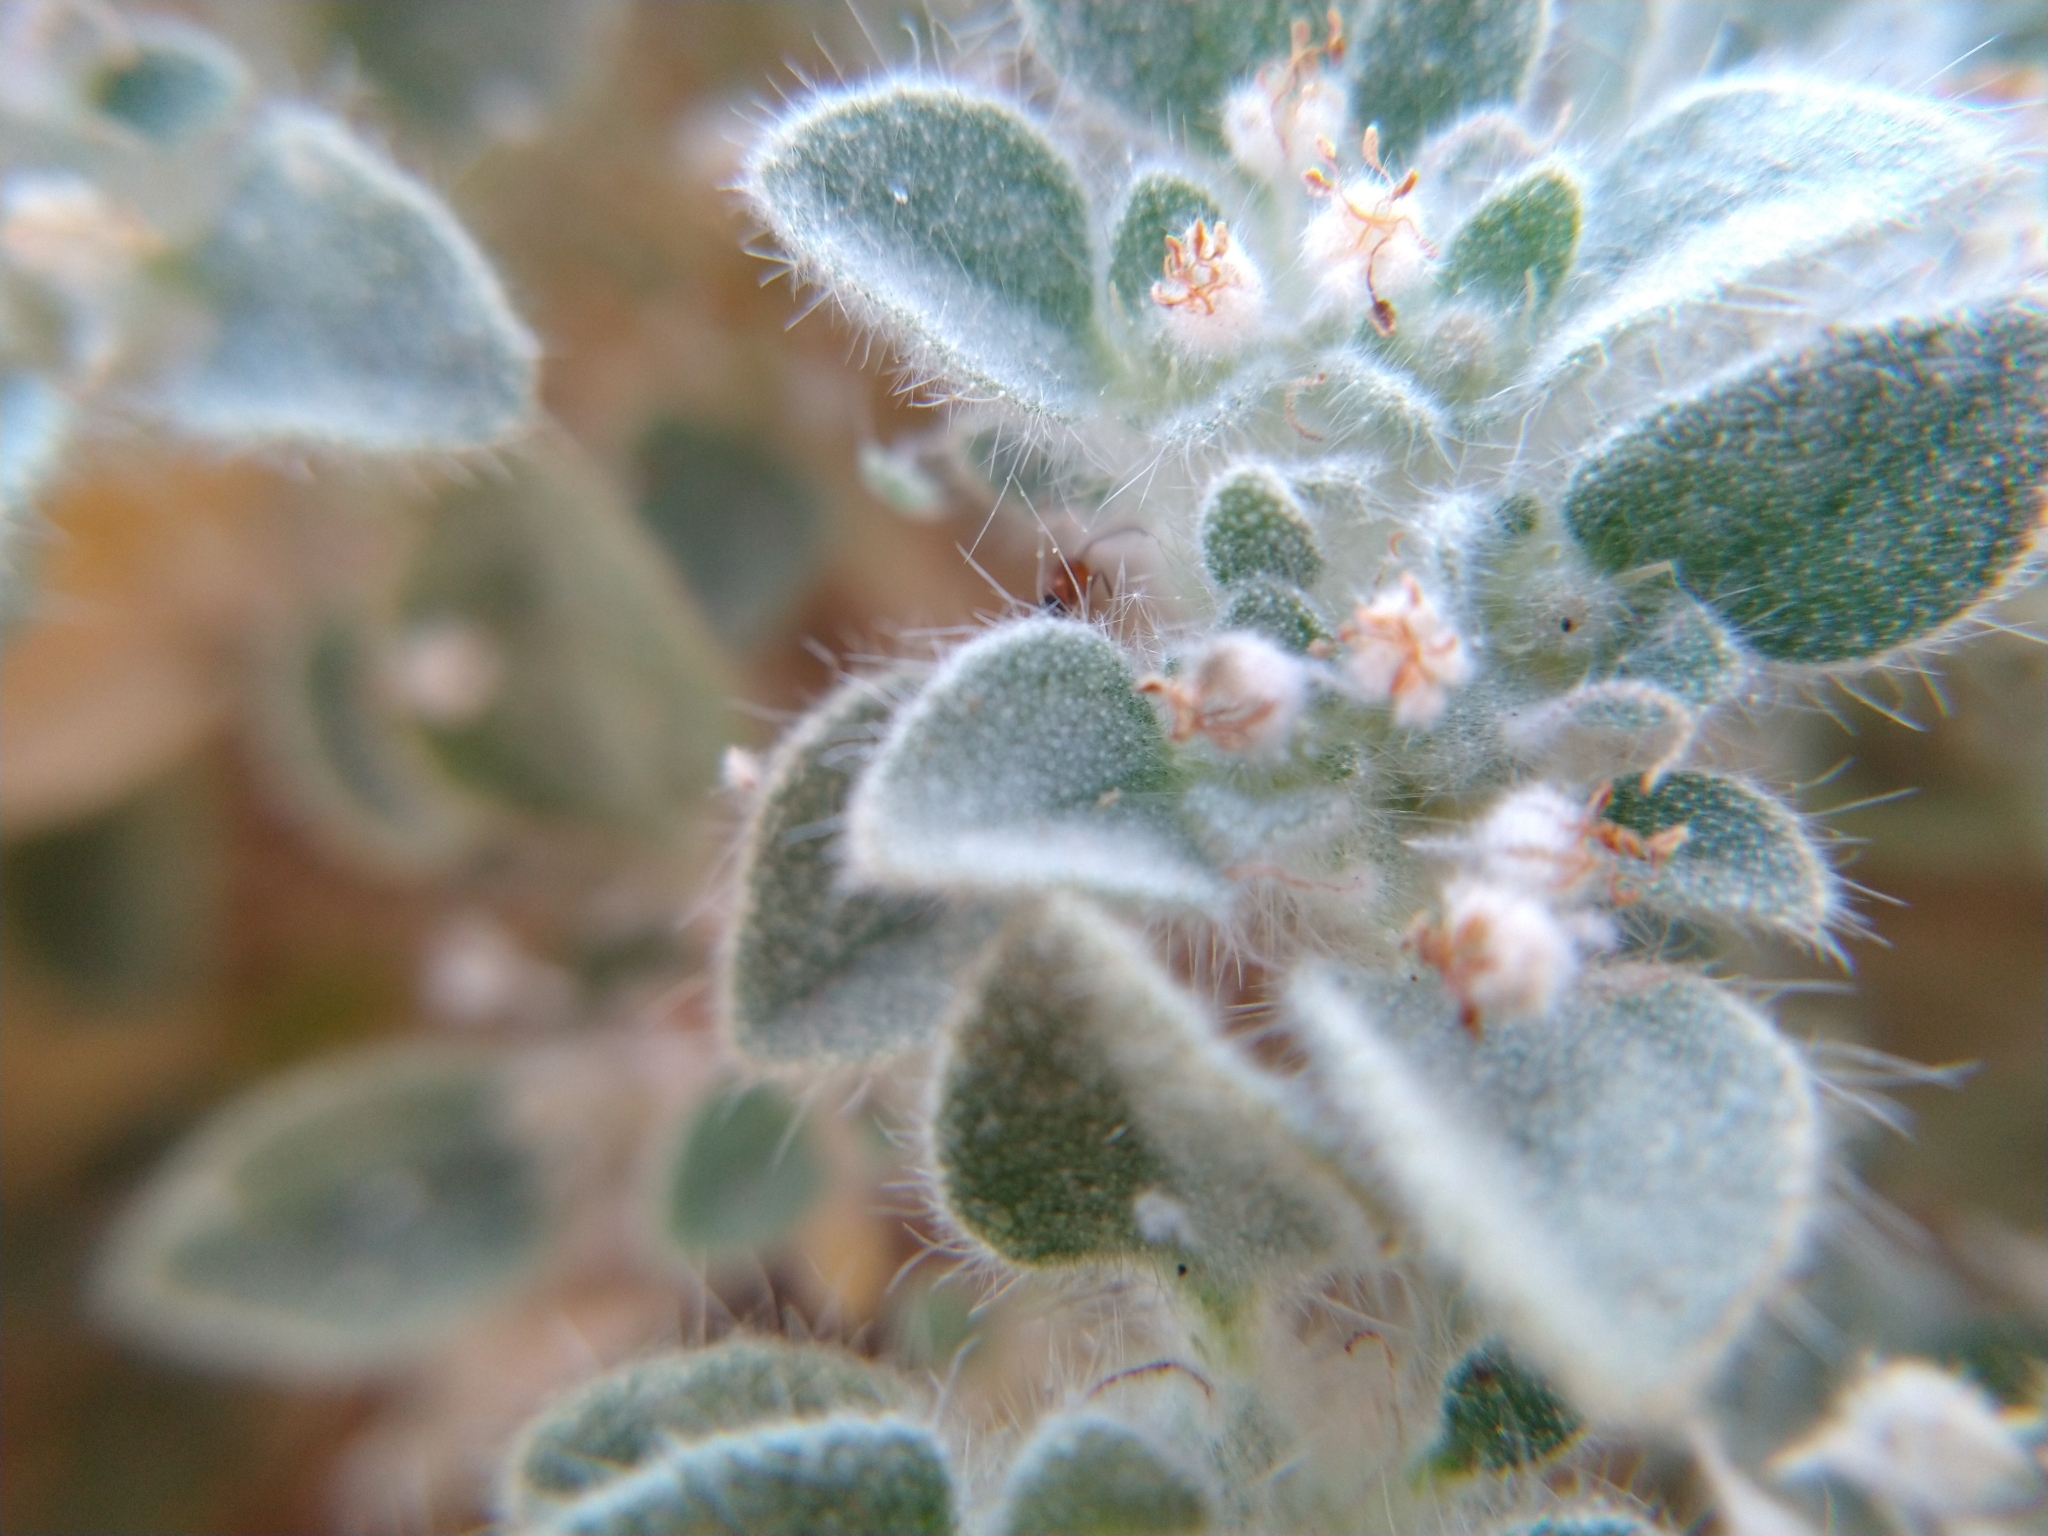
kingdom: Plantae
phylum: Tracheophyta
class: Magnoliopsida
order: Malpighiales
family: Euphorbiaceae
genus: Croton
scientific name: Croton setiger
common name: Dove weed
